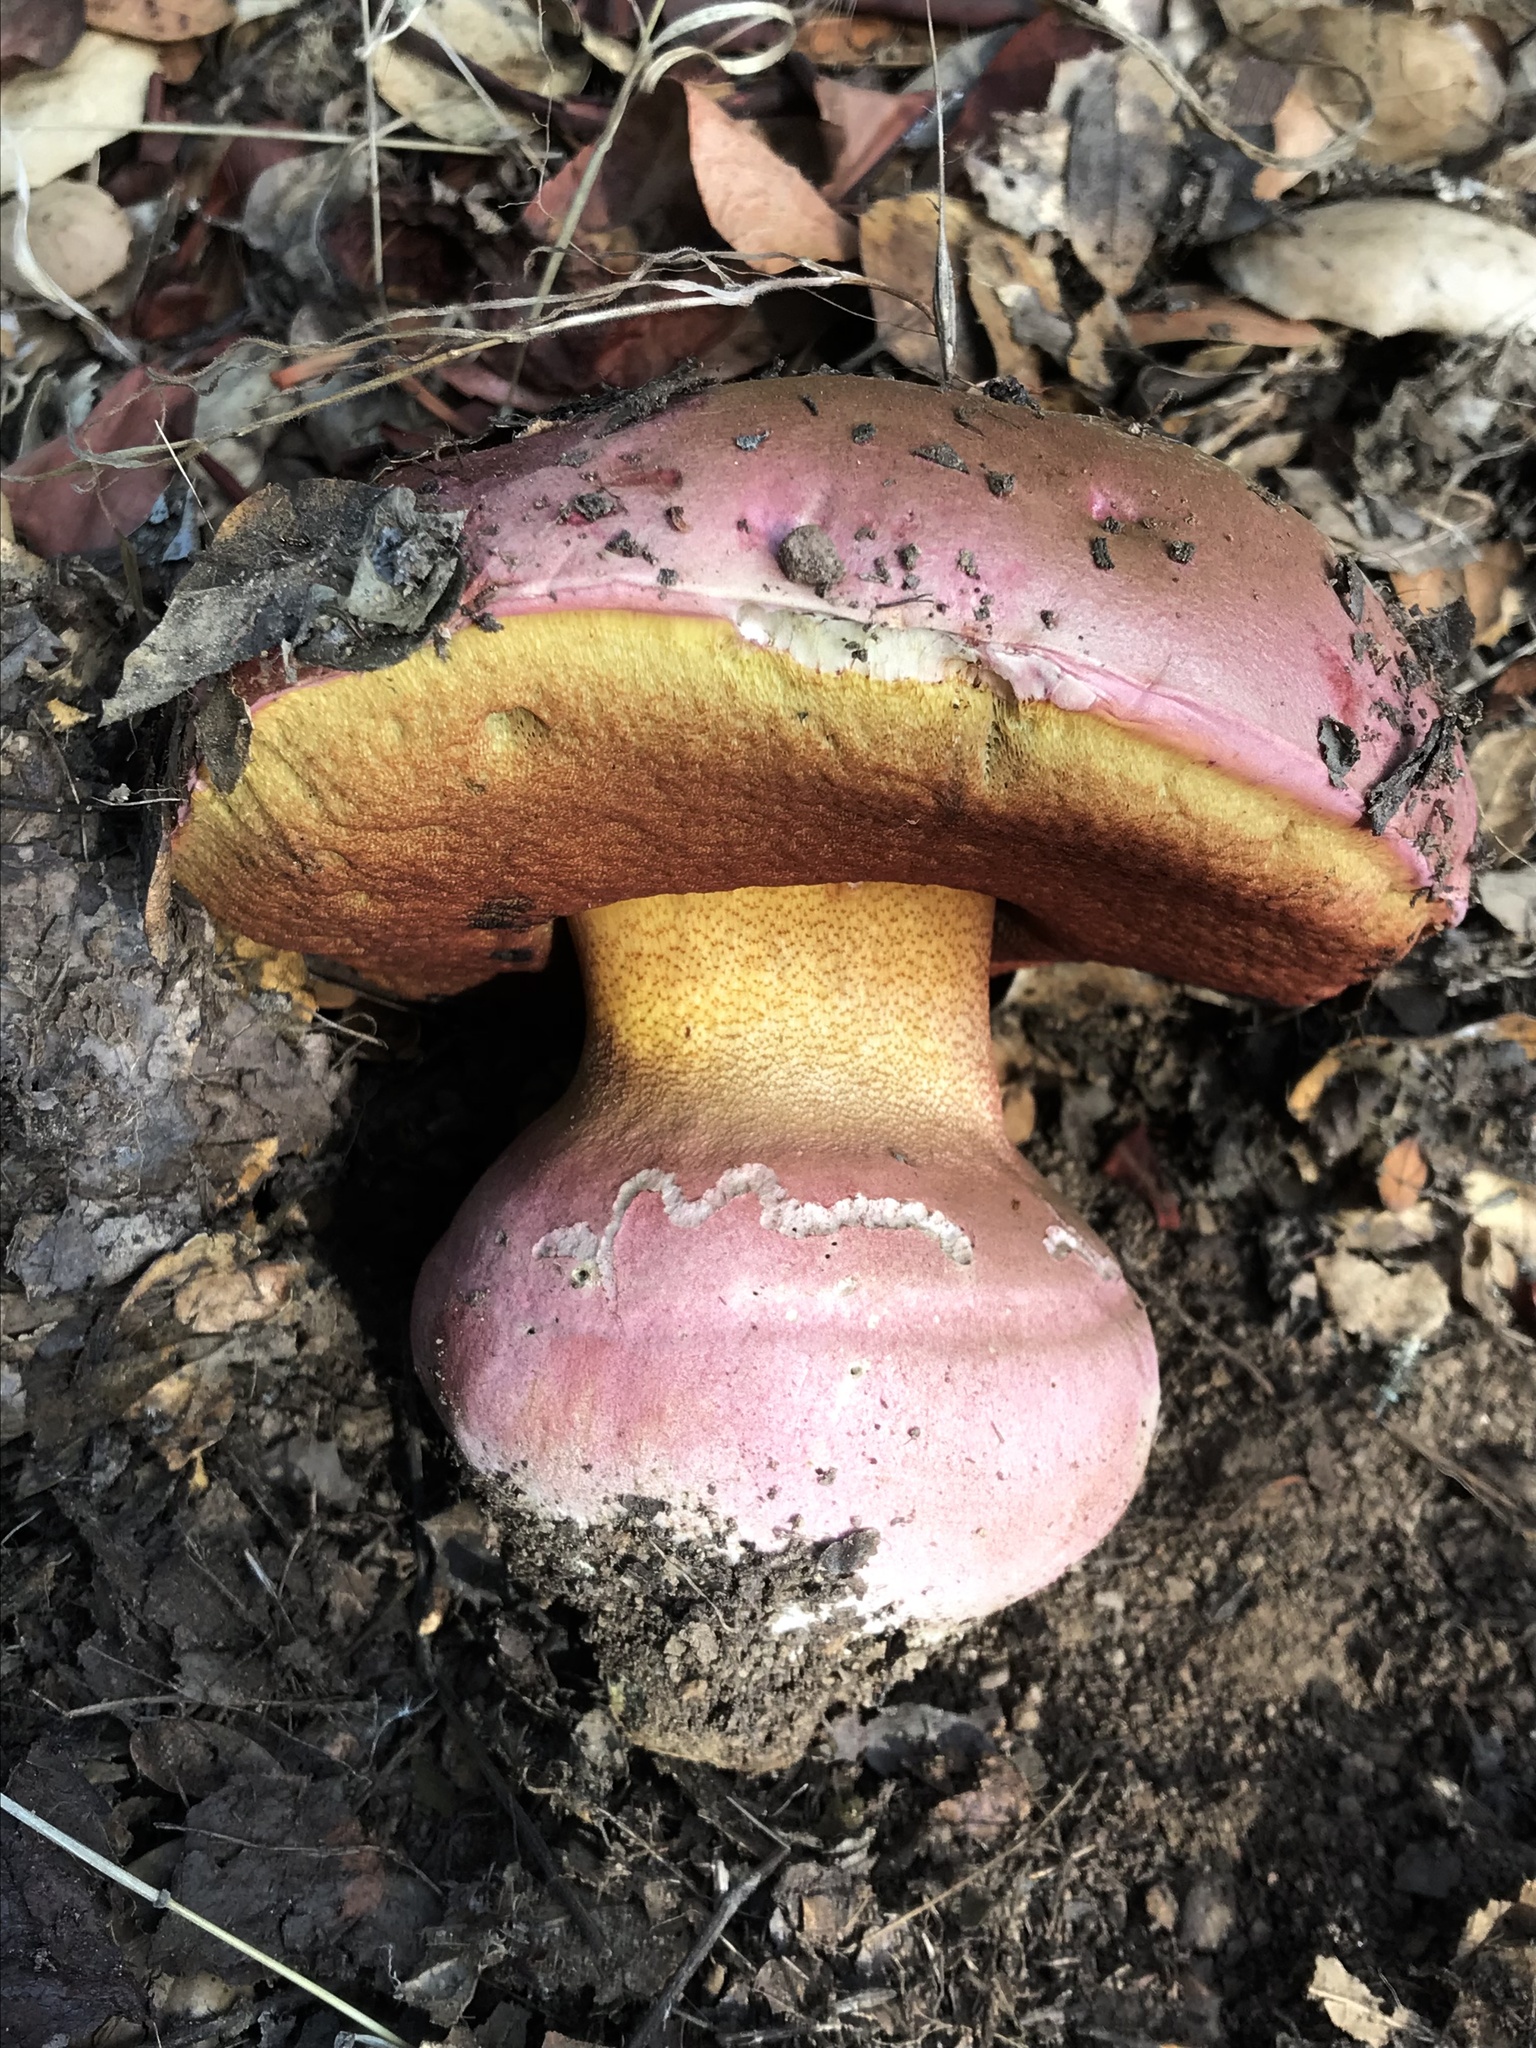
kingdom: Fungi
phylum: Basidiomycota
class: Agaricomycetes
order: Boletales
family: Boletaceae
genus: Rubroboletus
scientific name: Rubroboletus eastwoodiae
